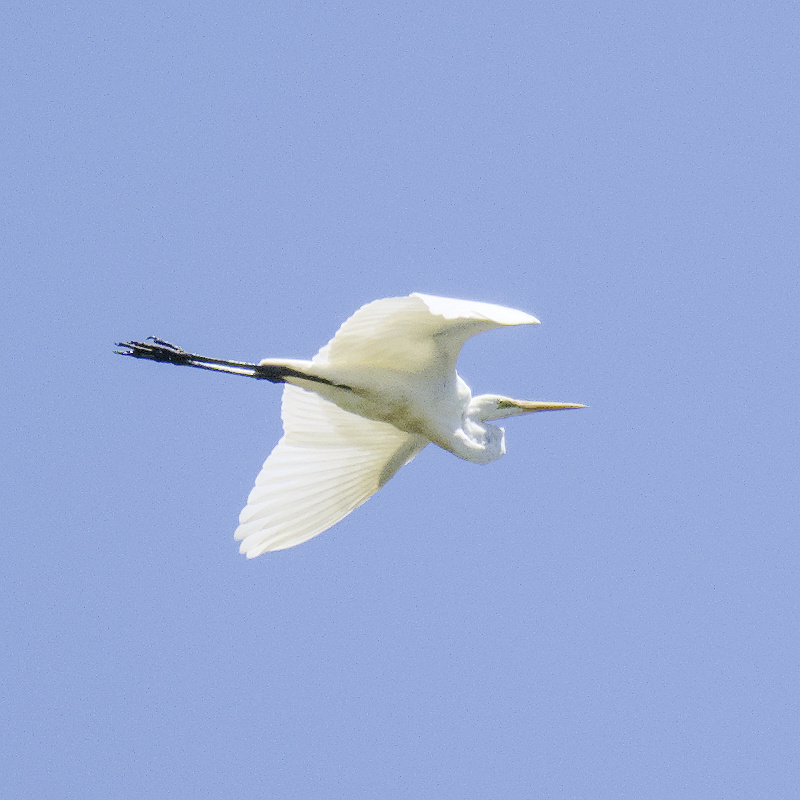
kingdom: Animalia
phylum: Chordata
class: Aves
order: Pelecaniformes
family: Ardeidae
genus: Ardea
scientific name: Ardea alba
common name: Great egret
